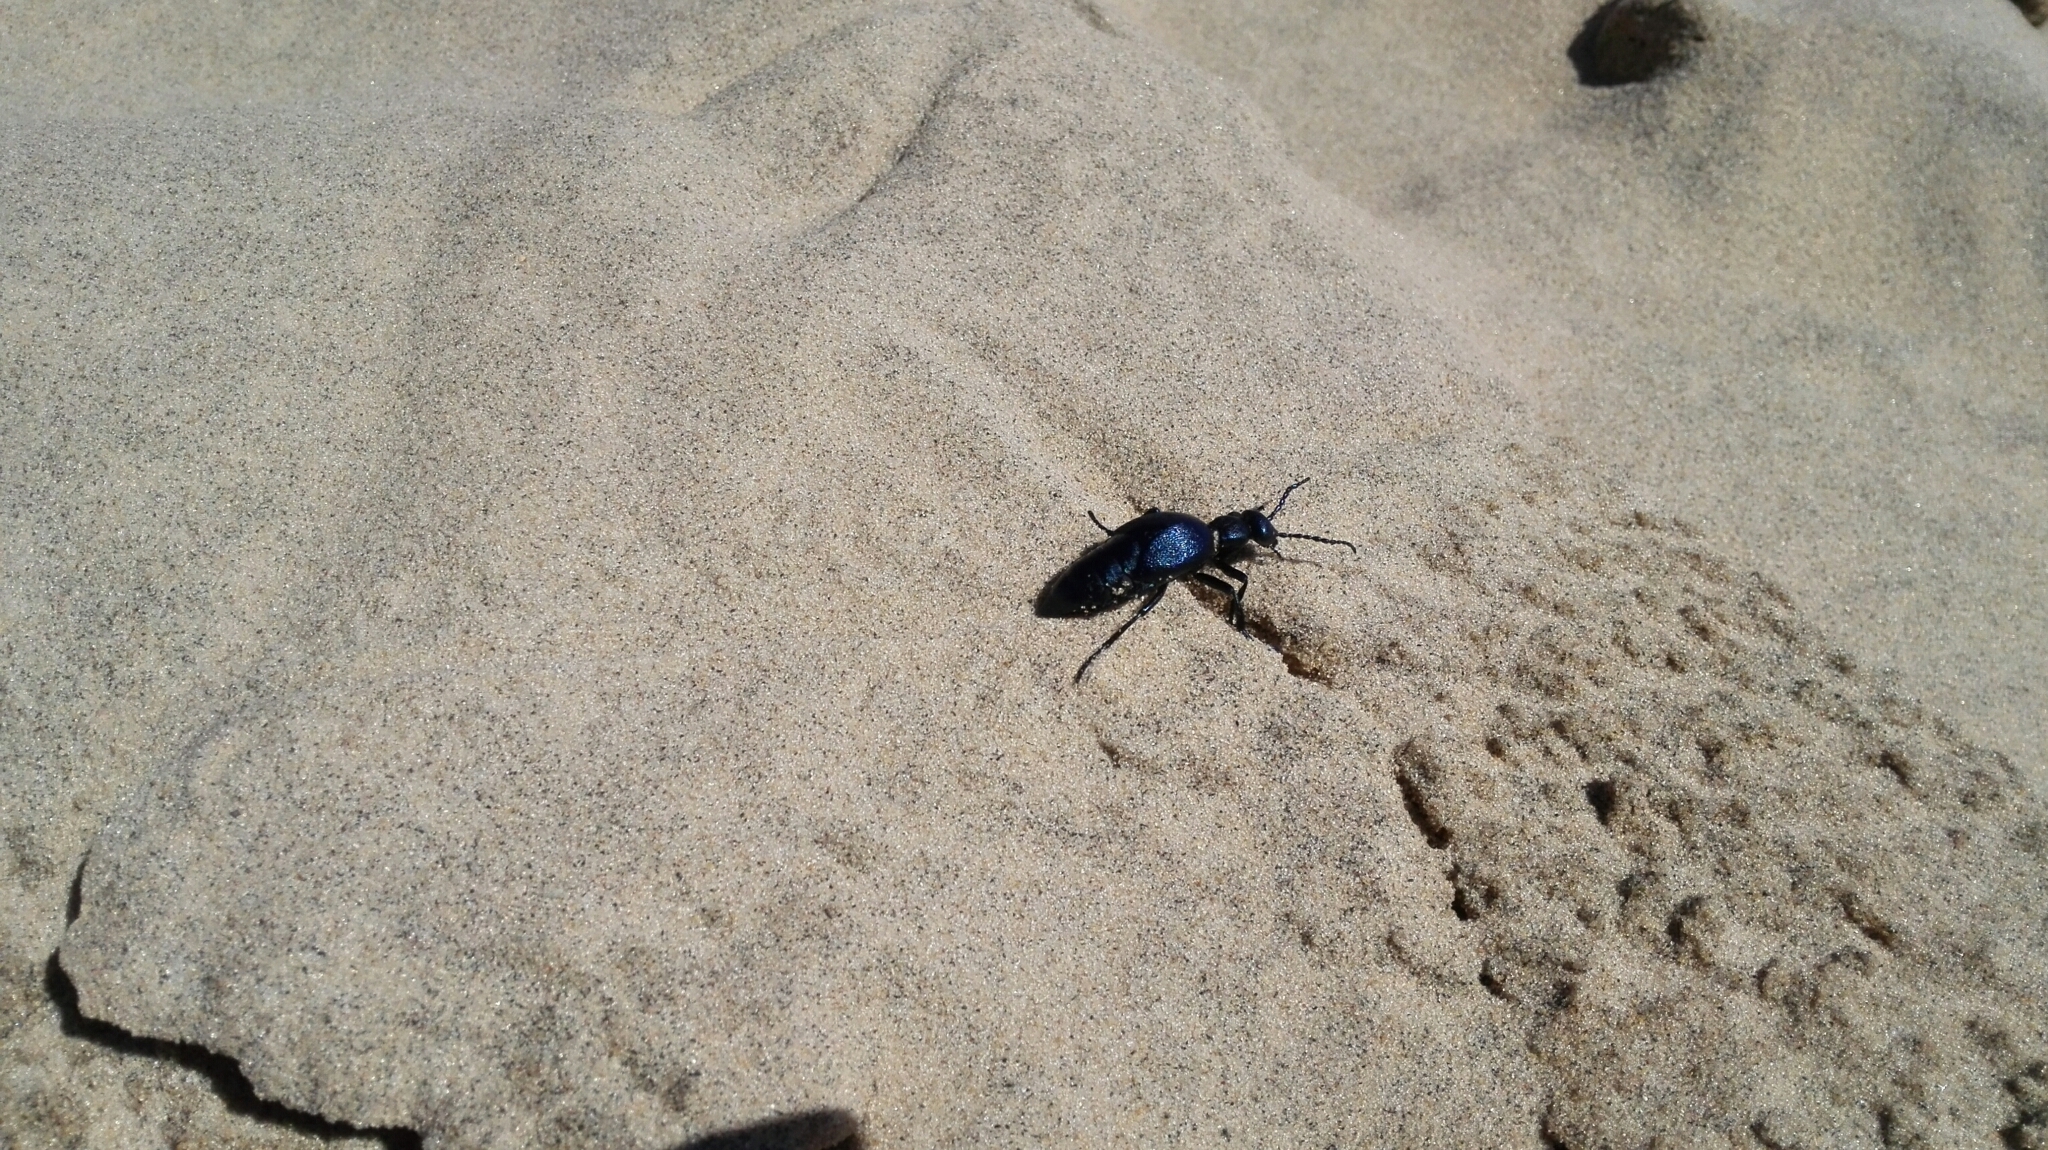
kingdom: Animalia
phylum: Arthropoda
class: Insecta
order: Coleoptera
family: Meloidae
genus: Meloe
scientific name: Meloe violaceus
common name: Violet oil-beetle
